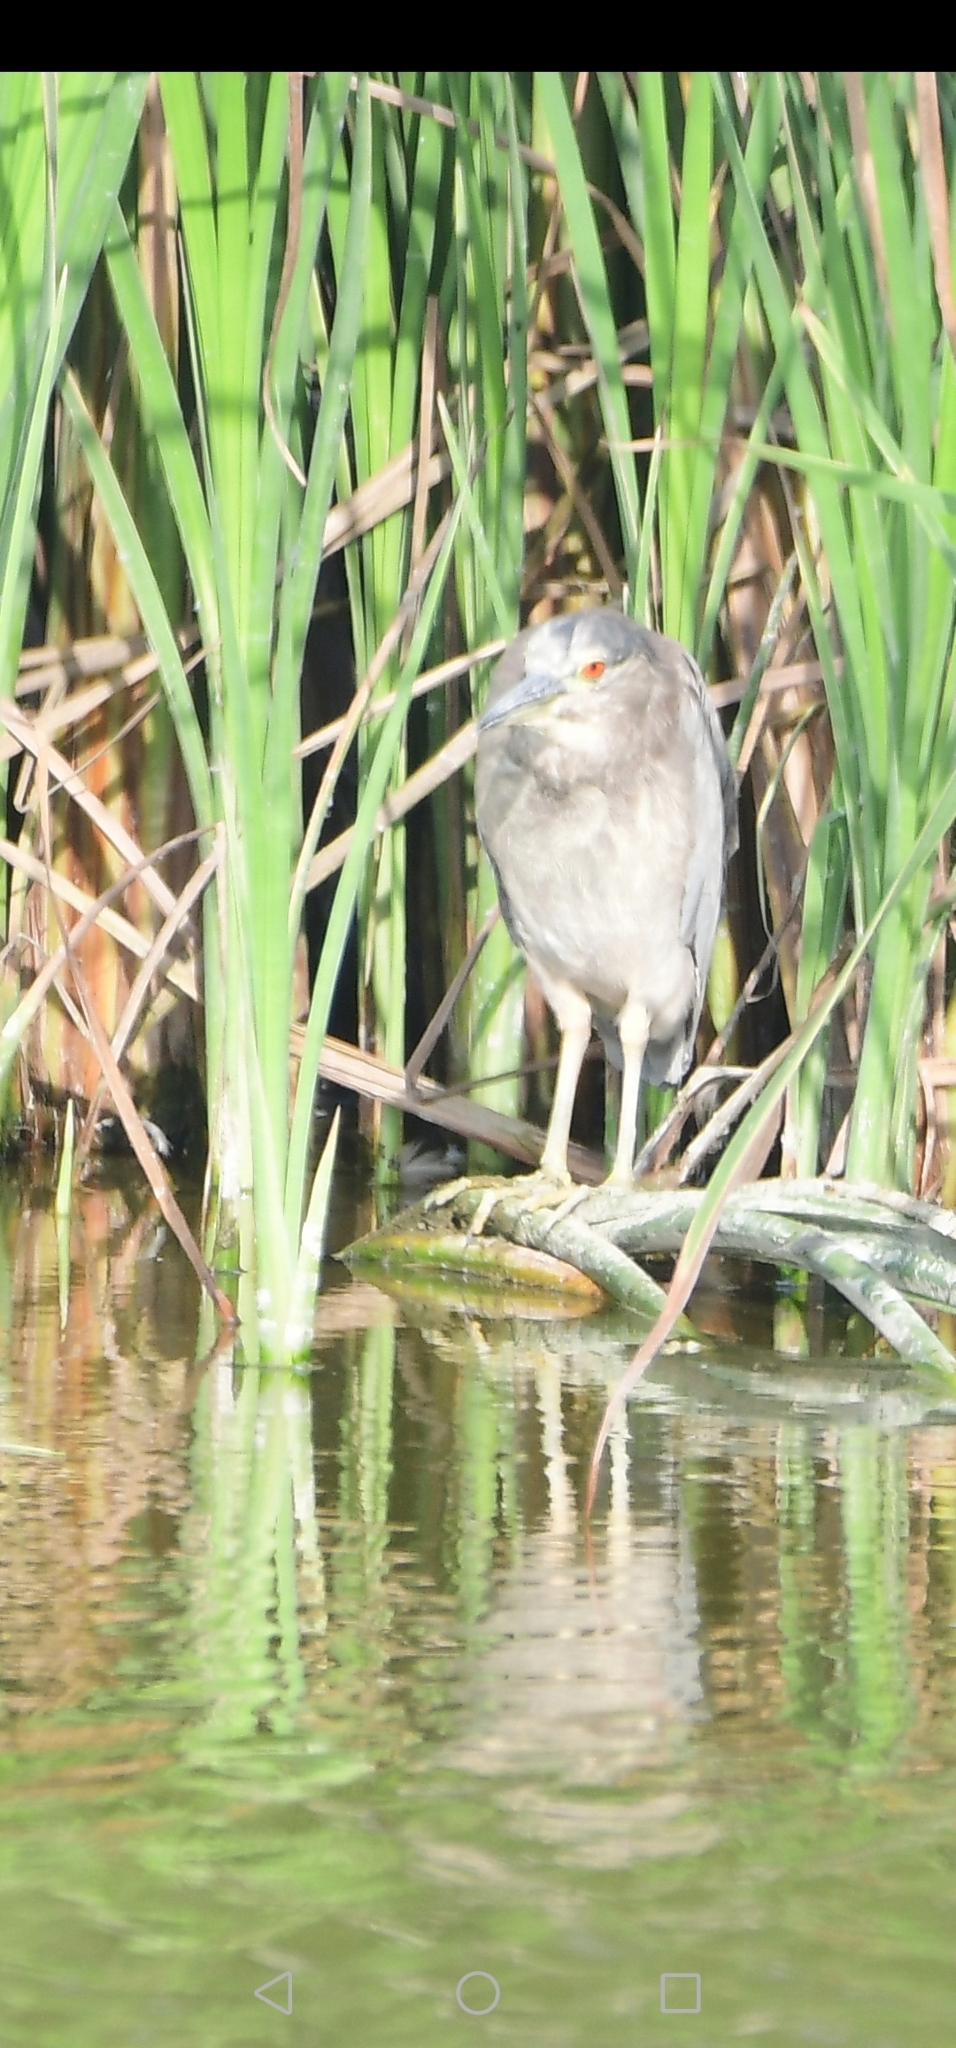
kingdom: Animalia
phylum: Chordata
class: Aves
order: Pelecaniformes
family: Ardeidae
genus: Nycticorax
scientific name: Nycticorax nycticorax
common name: Black-crowned night heron
